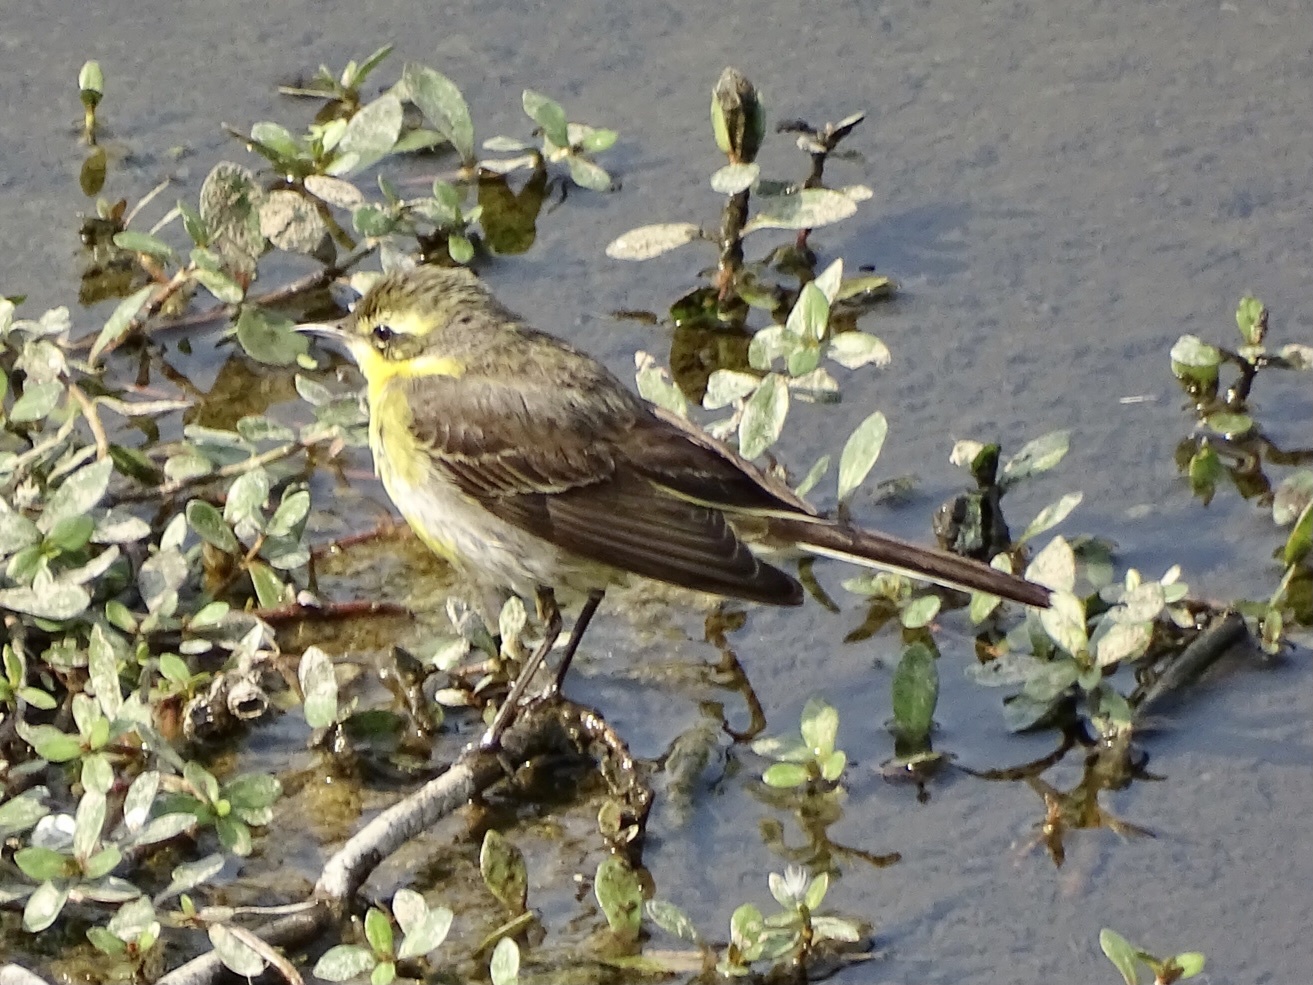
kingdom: Animalia
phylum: Chordata
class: Aves
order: Passeriformes
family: Motacillidae
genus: Motacilla
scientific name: Motacilla tschutschensis
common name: Eastern yellow wagtail
